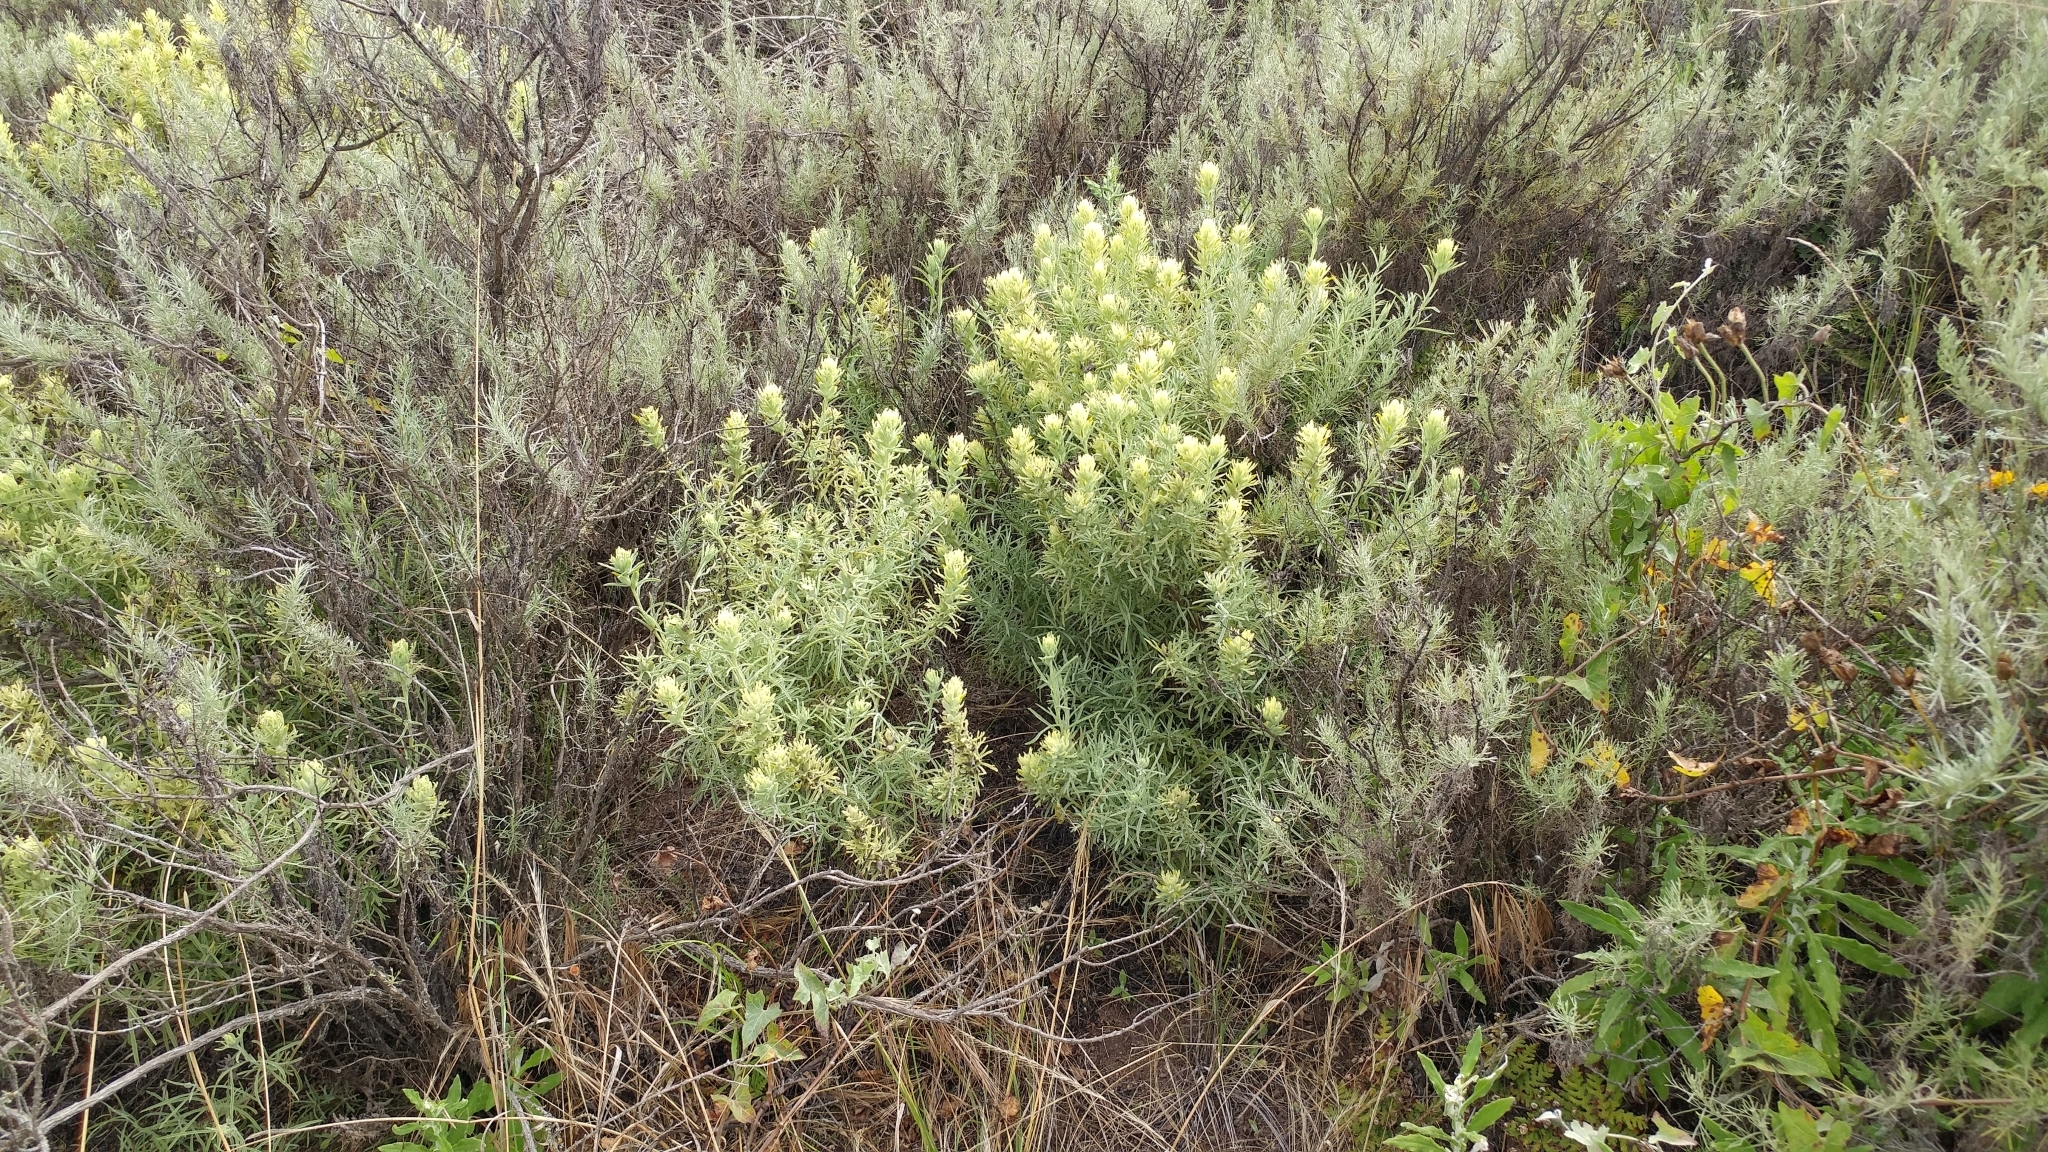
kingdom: Plantae
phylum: Tracheophyta
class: Magnoliopsida
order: Lamiales
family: Orobanchaceae
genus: Castilleja
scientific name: Castilleja grisea
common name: San clemente island indian paintbrush
